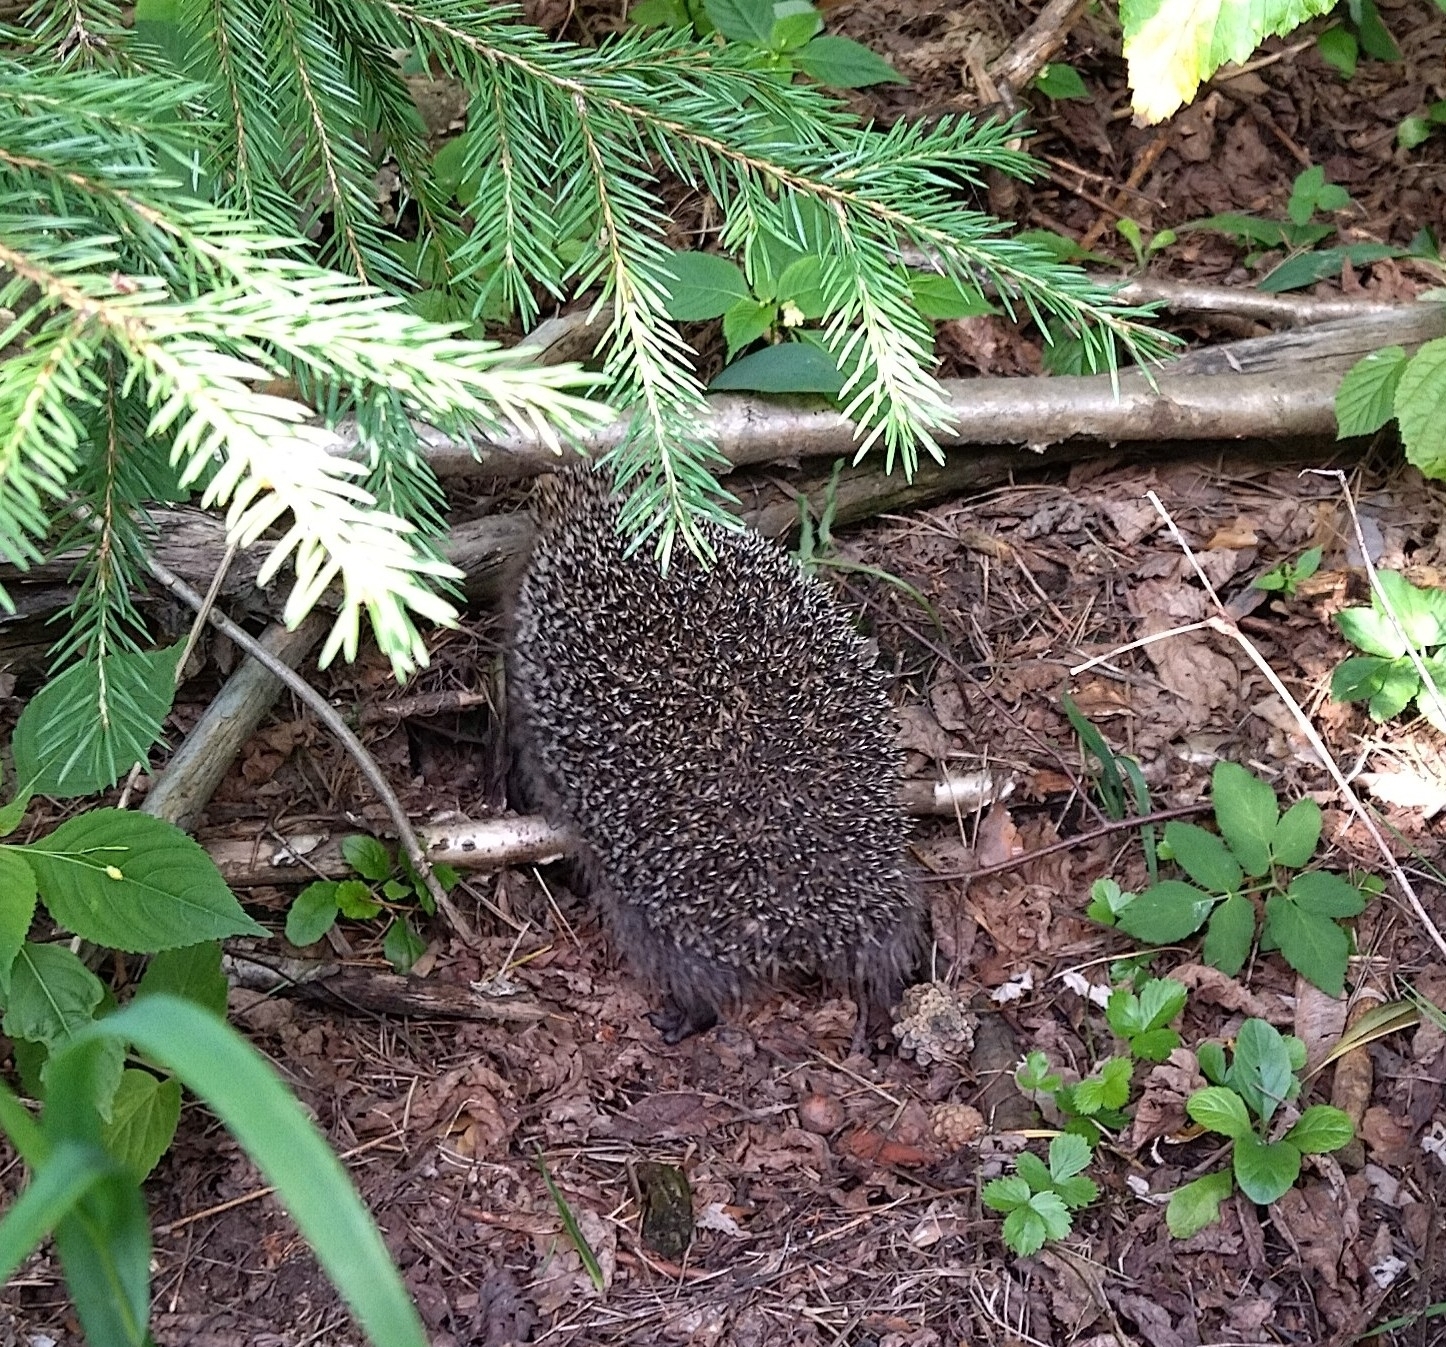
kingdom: Animalia
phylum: Chordata
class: Mammalia
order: Erinaceomorpha
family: Erinaceidae
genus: Erinaceus
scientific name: Erinaceus europaeus
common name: West european hedgehog
